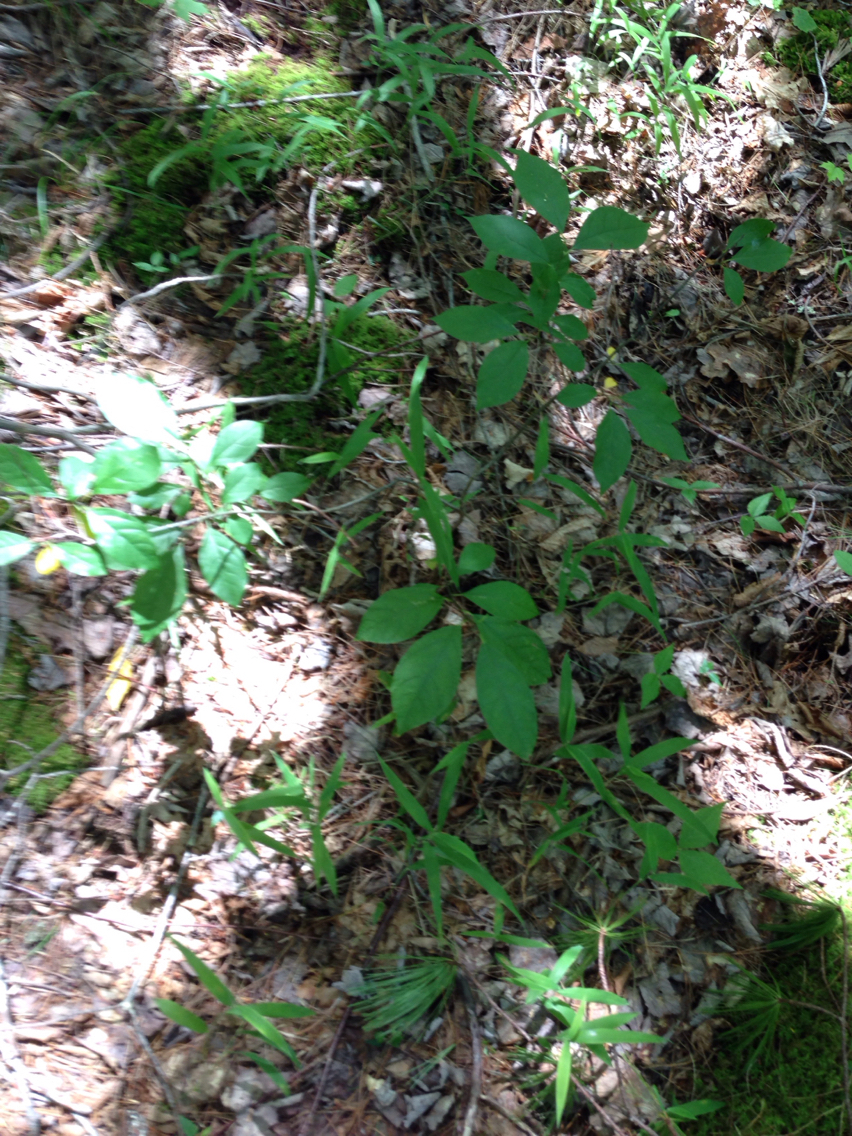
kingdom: Plantae
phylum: Tracheophyta
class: Magnoliopsida
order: Laurales
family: Lauraceae
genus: Lindera
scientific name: Lindera benzoin
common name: Spicebush
